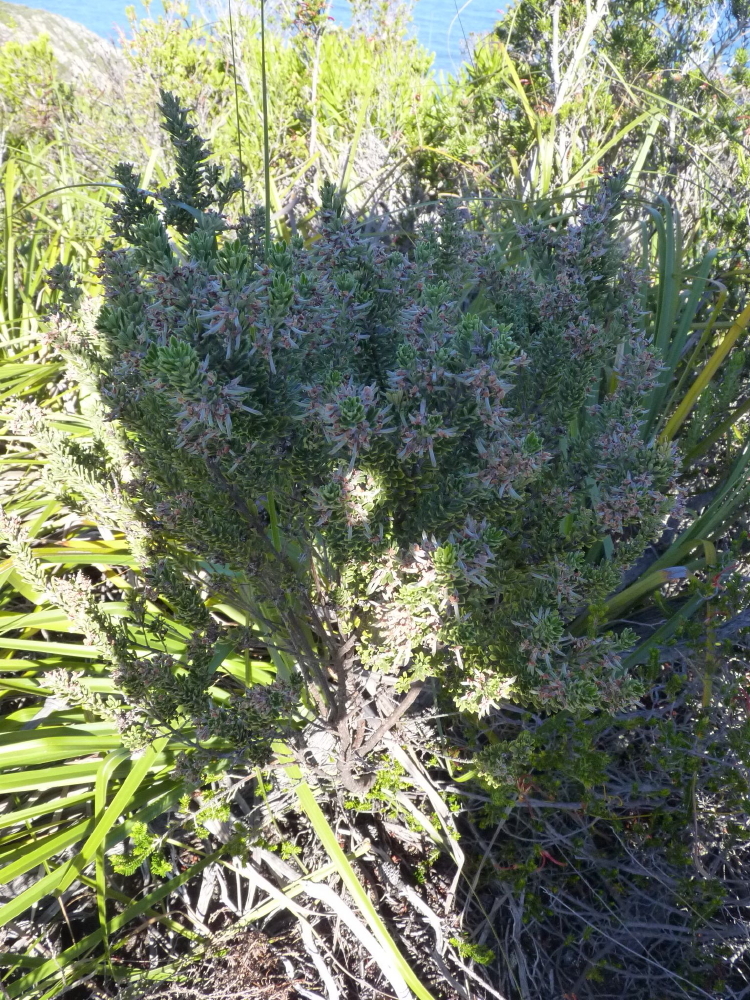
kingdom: Plantae
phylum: Tracheophyta
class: Magnoliopsida
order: Fabales
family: Fabaceae
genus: Indigofera
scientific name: Indigofera flabellata
